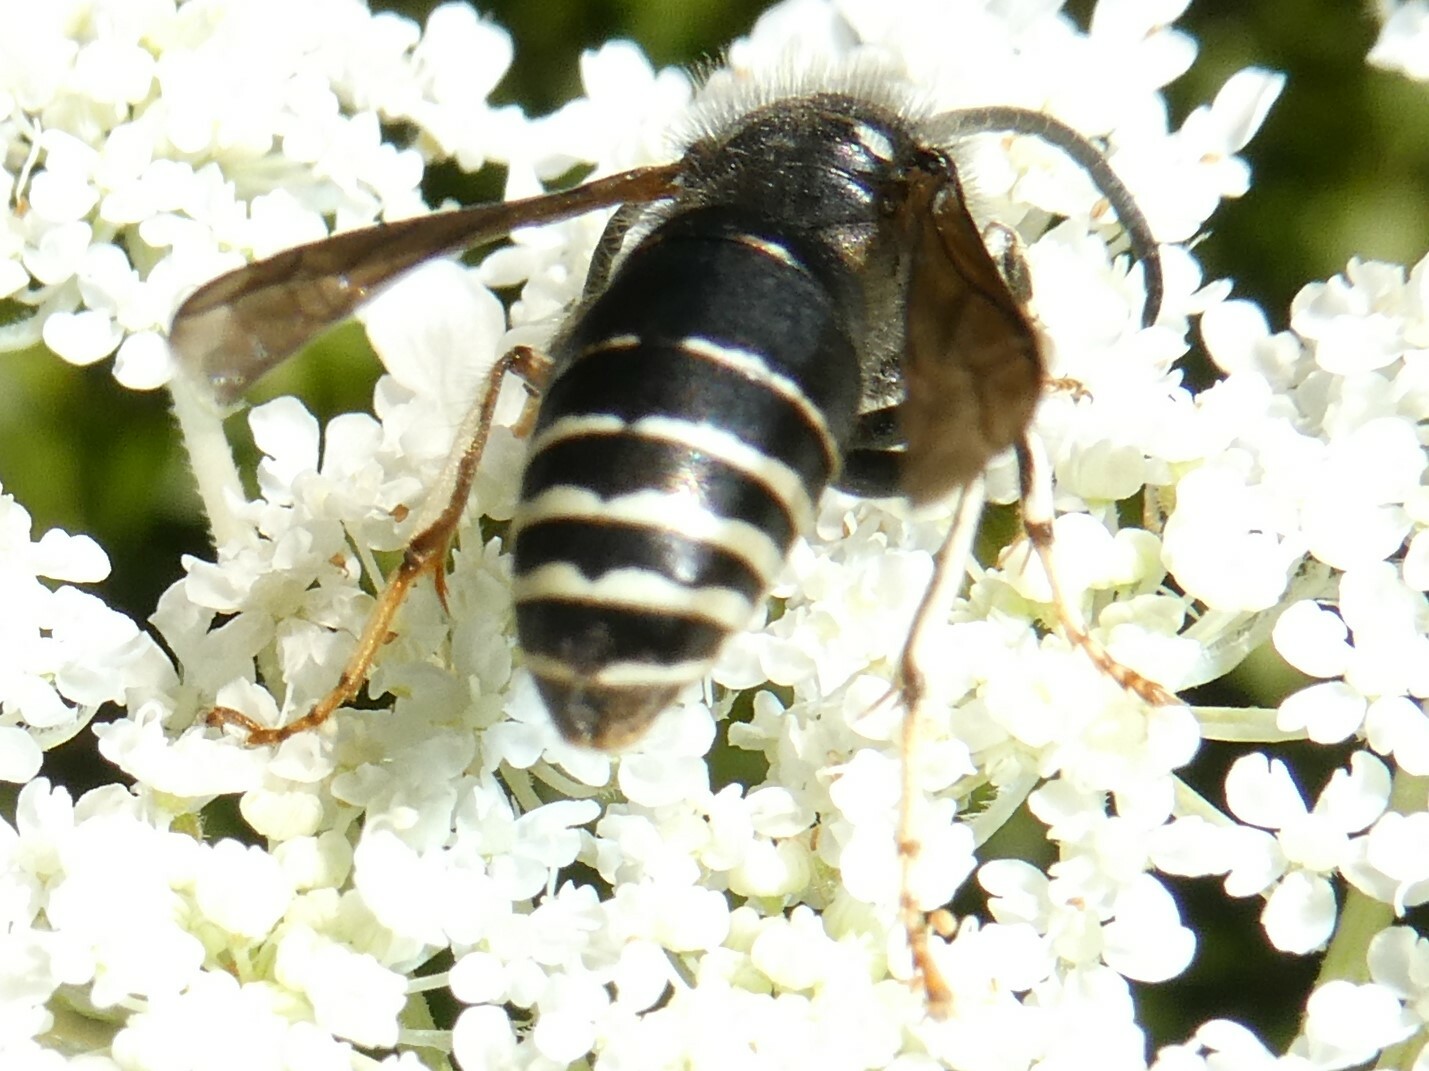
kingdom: Animalia
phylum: Arthropoda
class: Insecta
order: Hymenoptera
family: Vespidae
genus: Vespula
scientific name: Vespula consobrina
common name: Blackjacket
